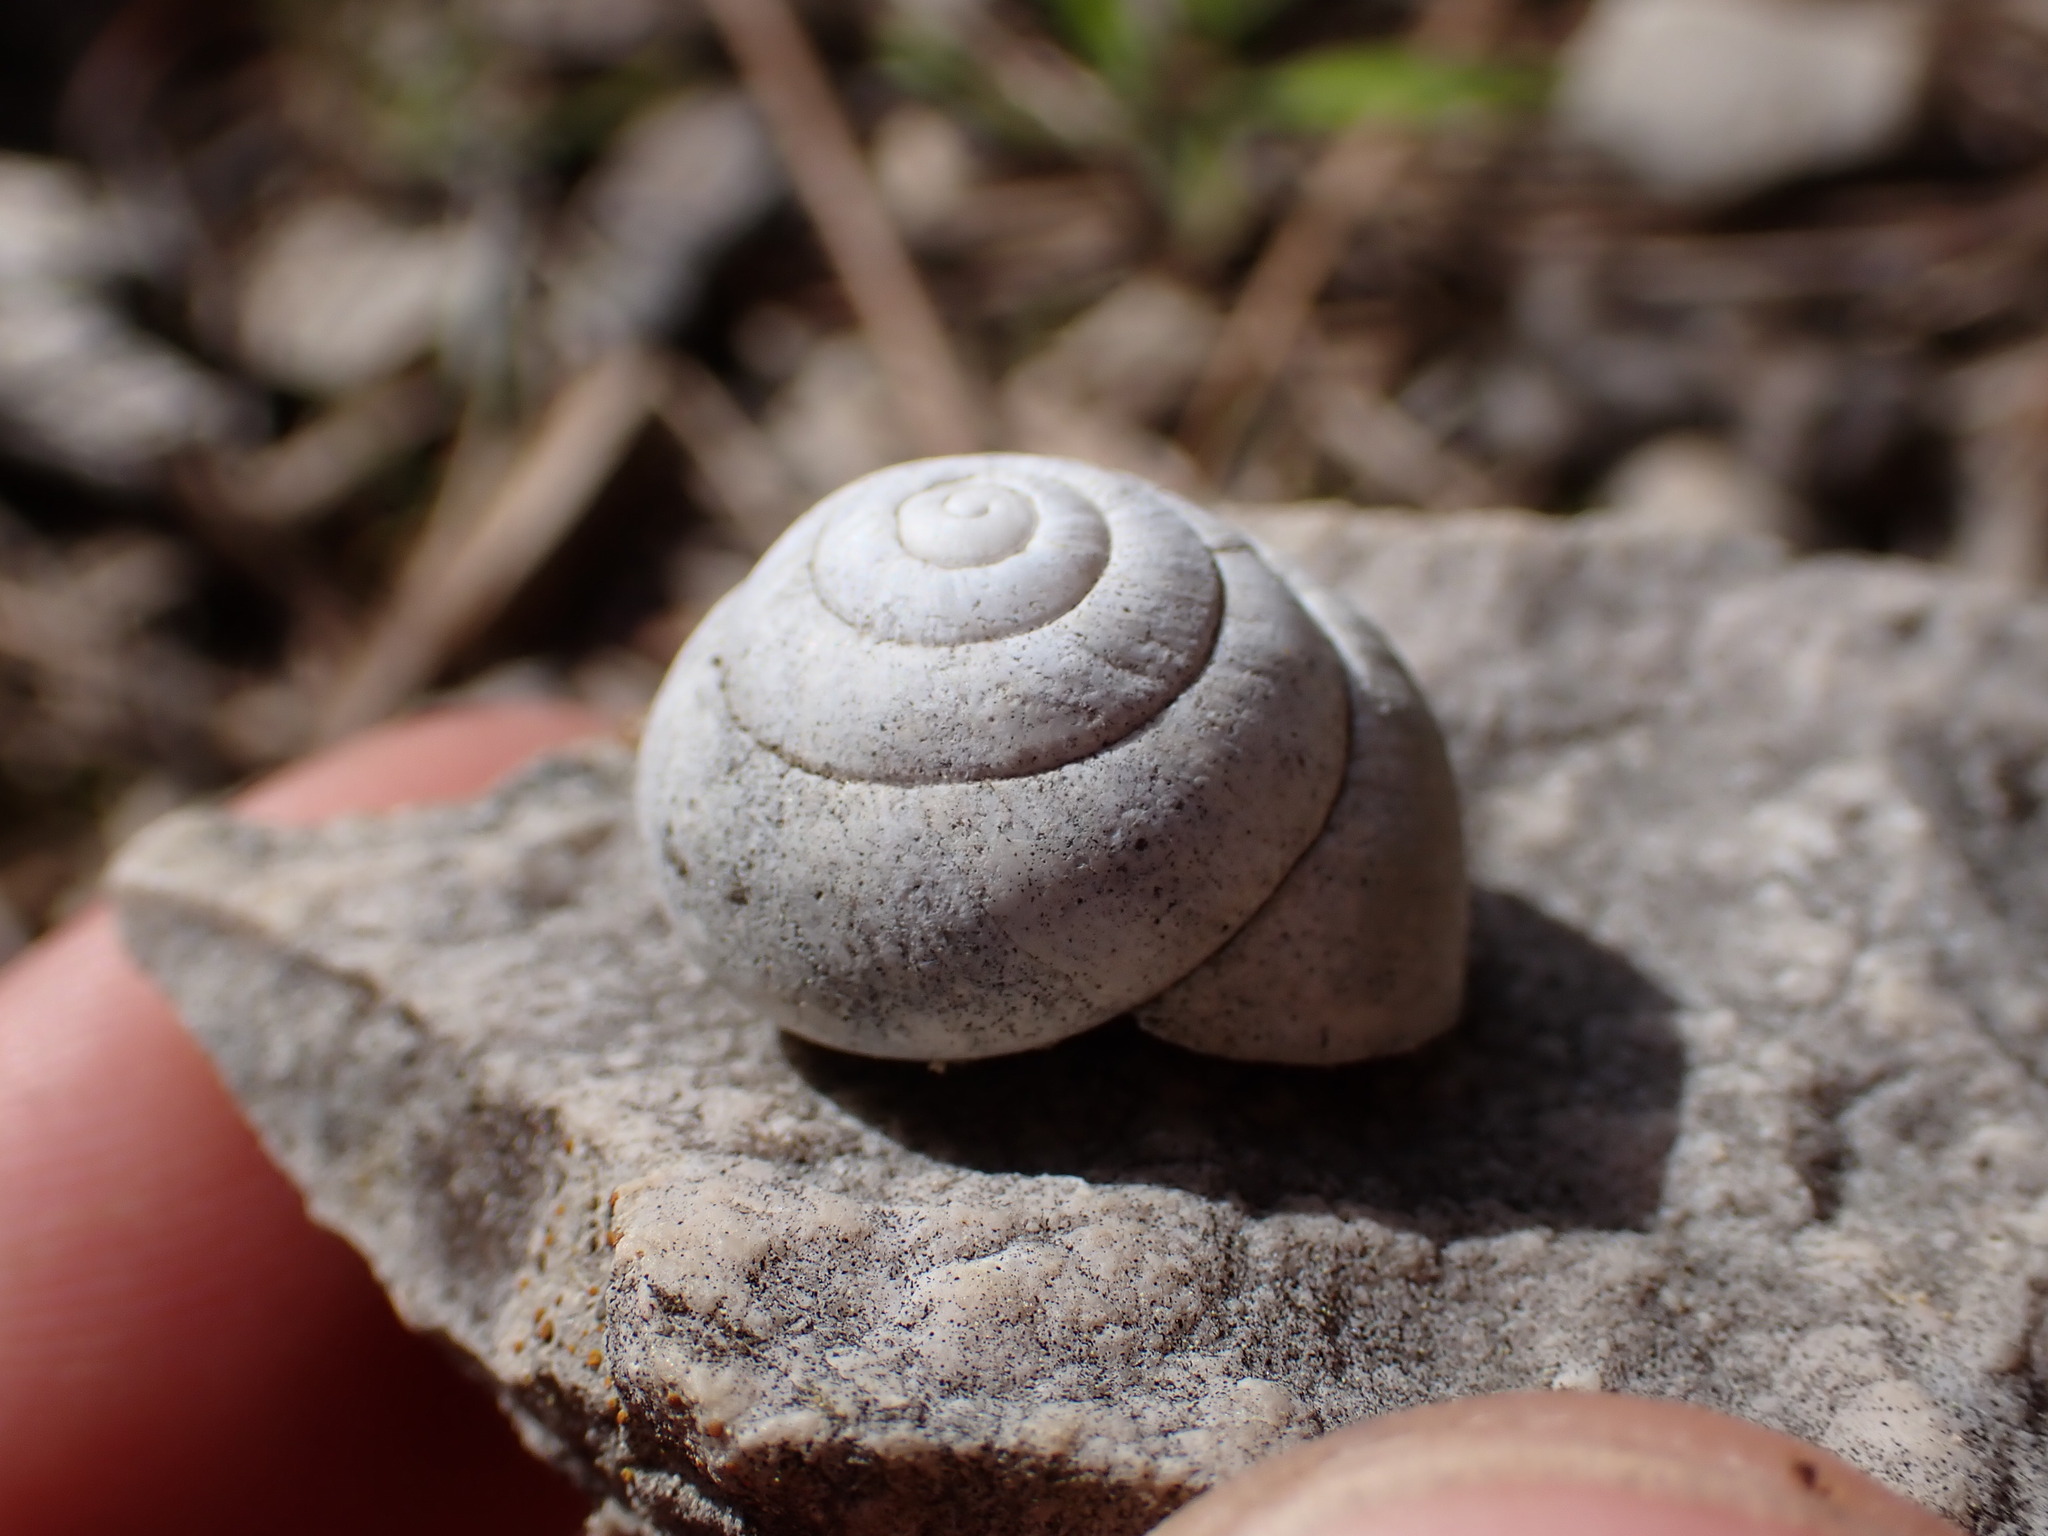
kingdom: Animalia
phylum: Mollusca
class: Gastropoda
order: Stylommatophora
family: Sphincterochilidae
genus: Sphincterochila
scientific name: Sphincterochila candidissima
